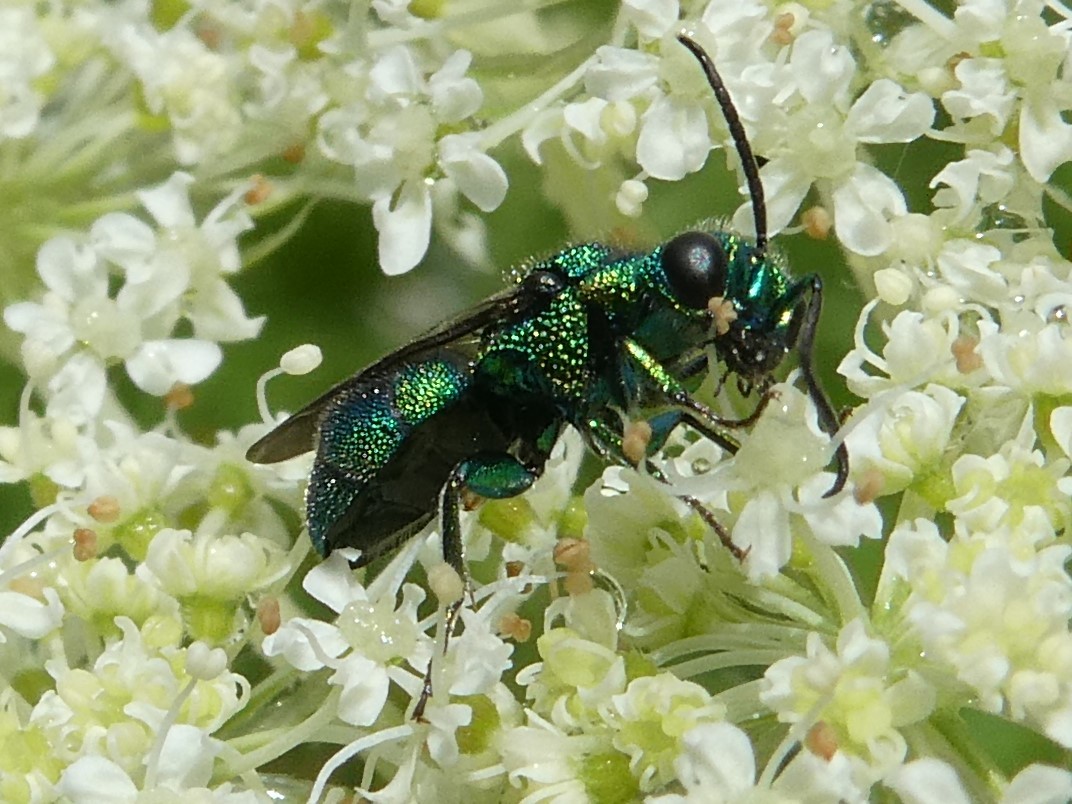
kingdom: Animalia
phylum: Arthropoda
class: Insecta
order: Hymenoptera
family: Chrysididae
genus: Holopyga
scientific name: Holopyga
